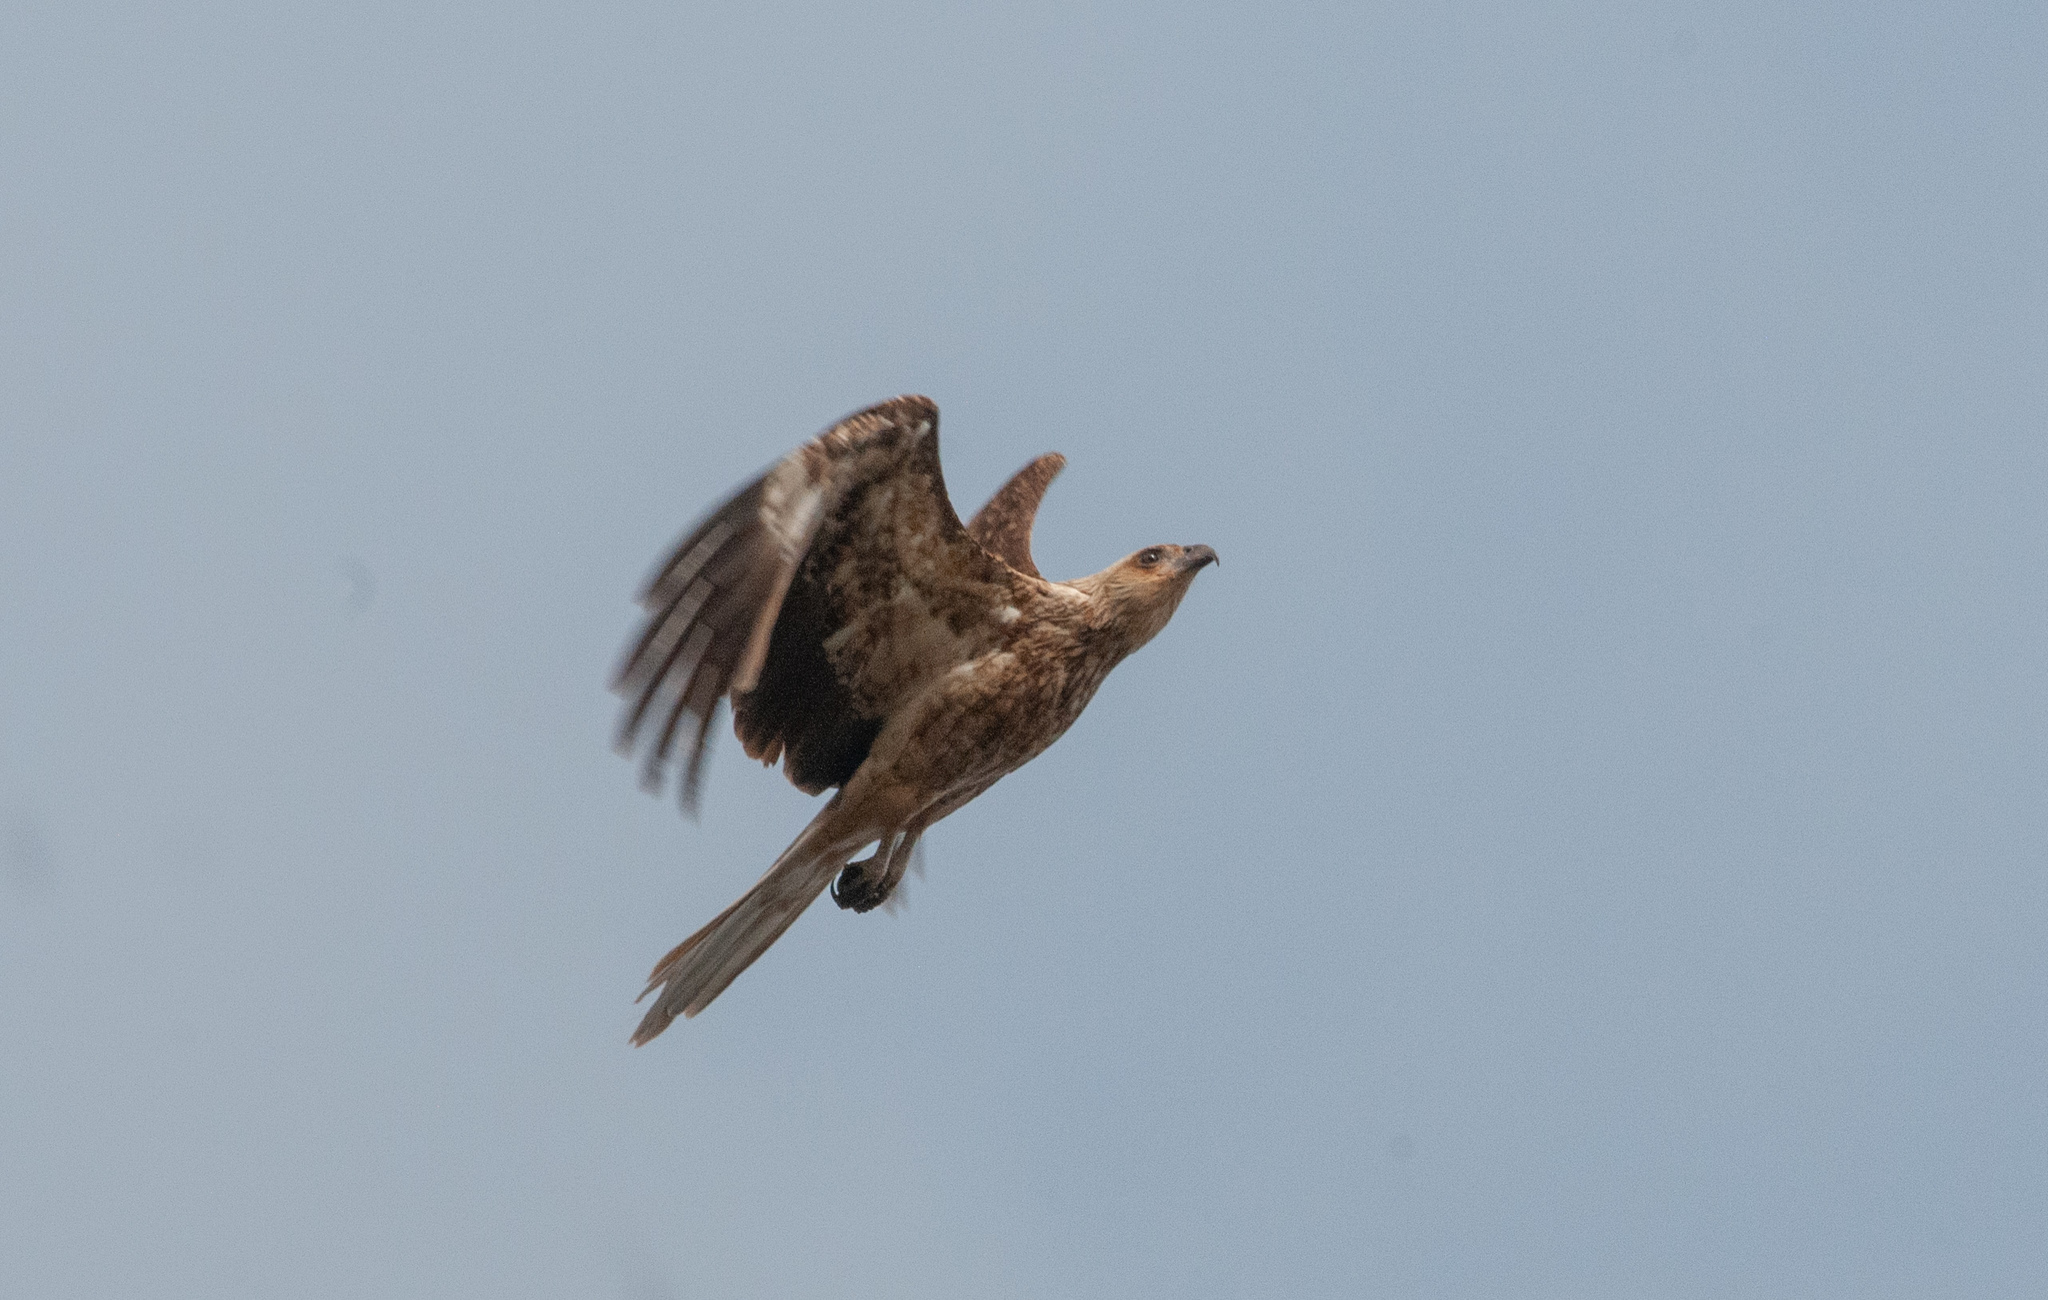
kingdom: Animalia
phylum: Chordata
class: Aves
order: Accipitriformes
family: Accipitridae
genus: Haliastur
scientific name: Haliastur sphenurus
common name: Whistling kite
